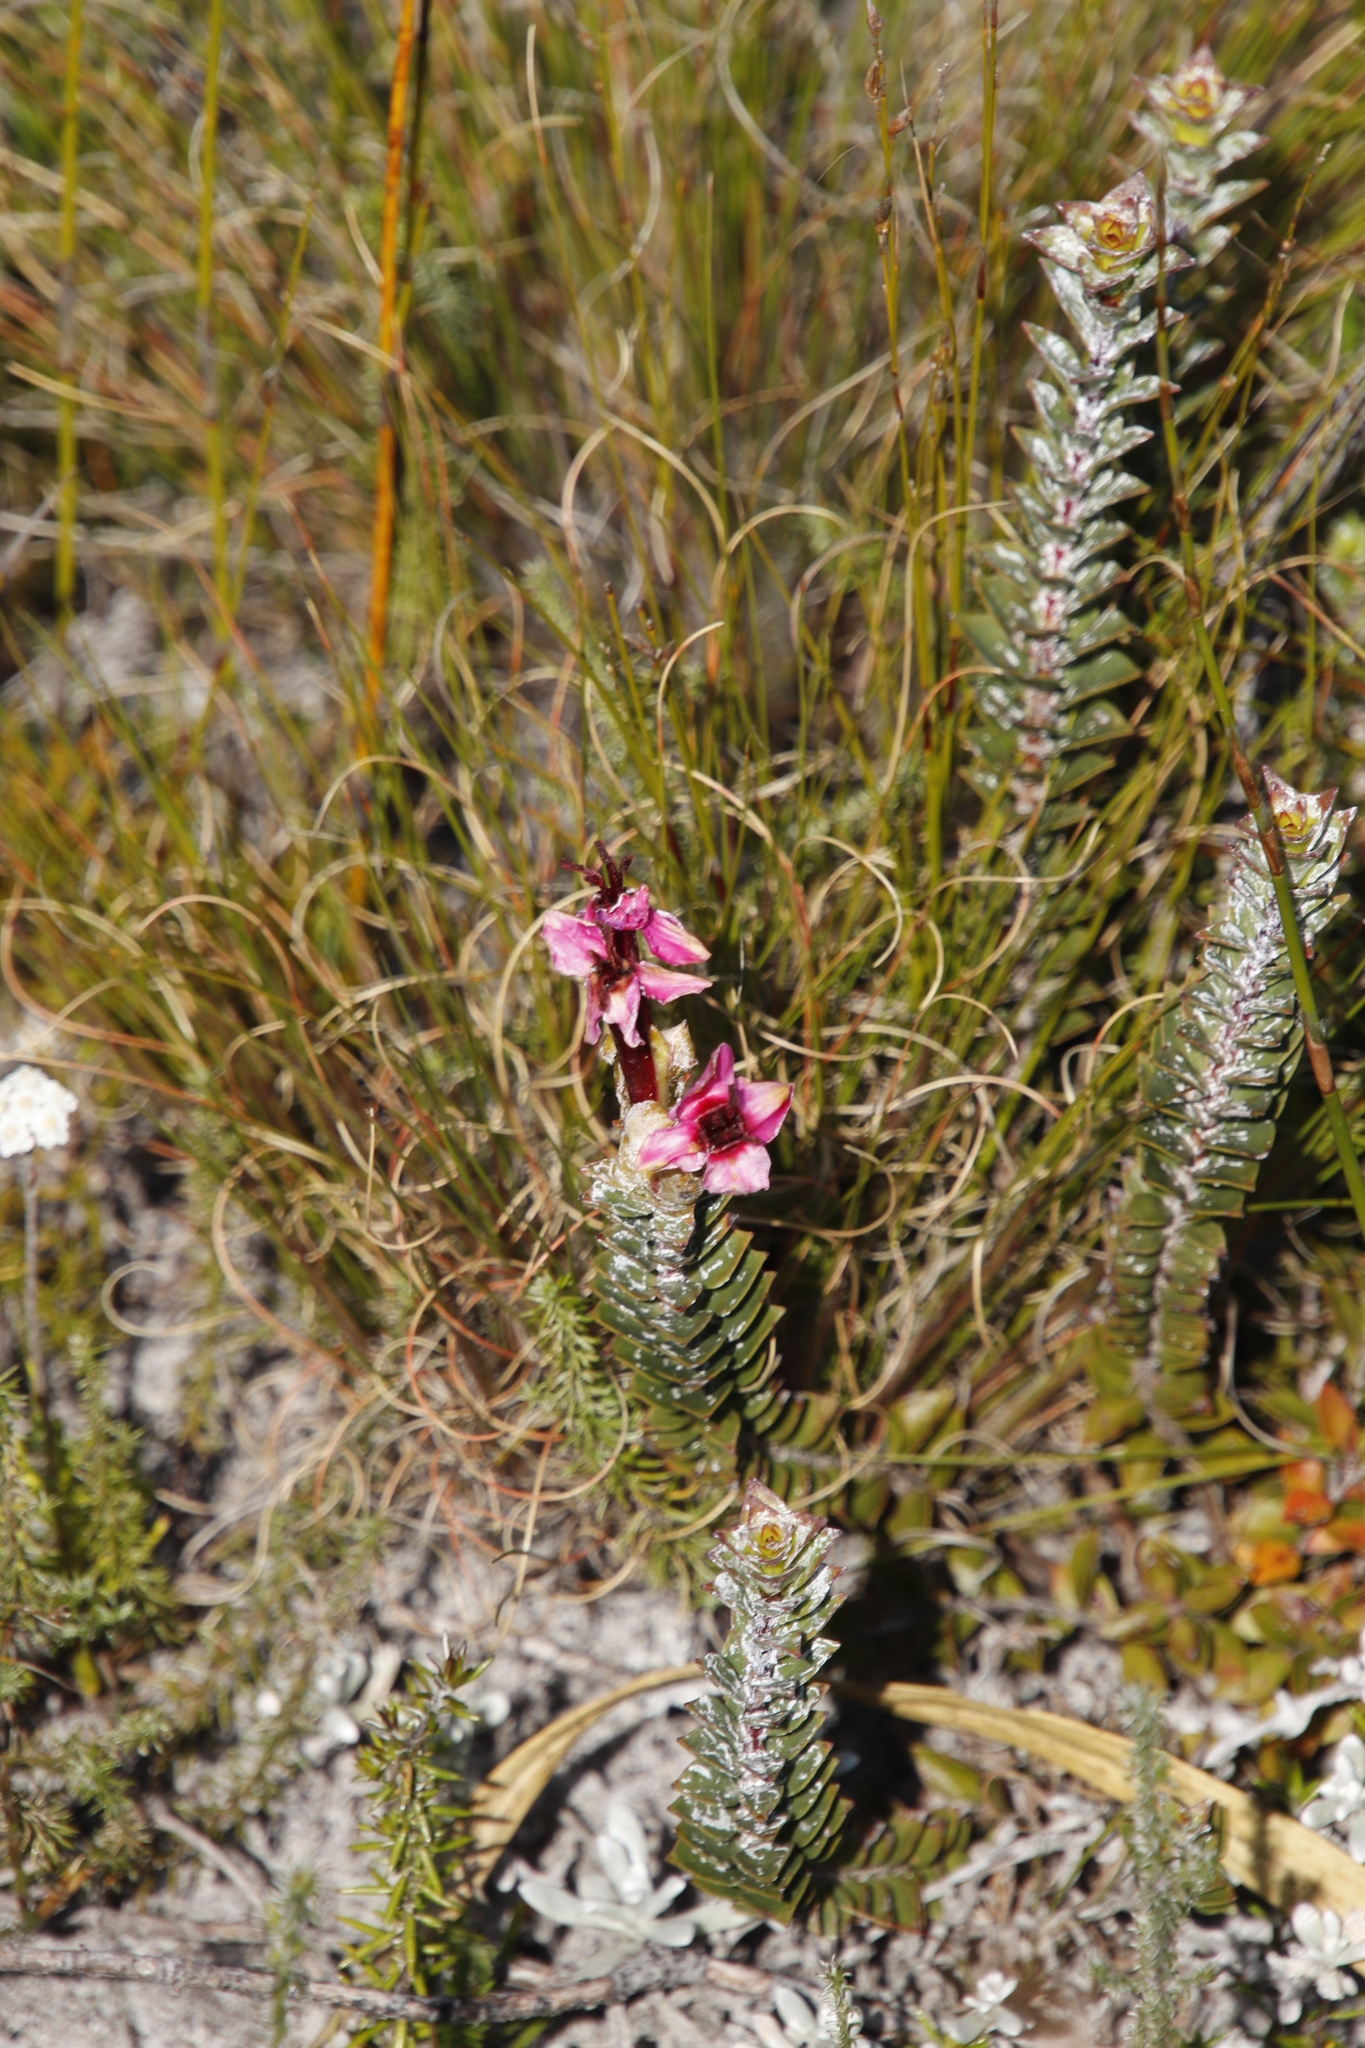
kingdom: Plantae
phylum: Tracheophyta
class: Magnoliopsida
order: Myrtales
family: Penaeaceae
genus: Saltera
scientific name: Saltera sarcocolla
